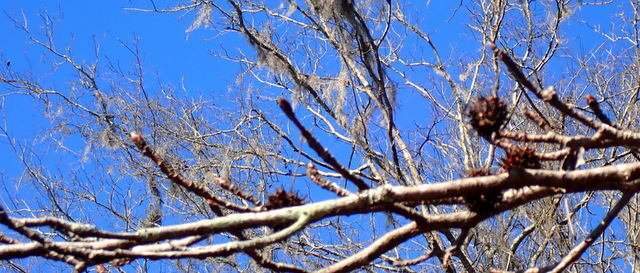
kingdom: Plantae
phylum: Tracheophyta
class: Magnoliopsida
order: Saxifragales
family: Altingiaceae
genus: Liquidambar
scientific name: Liquidambar styraciflua
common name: Sweet gum
